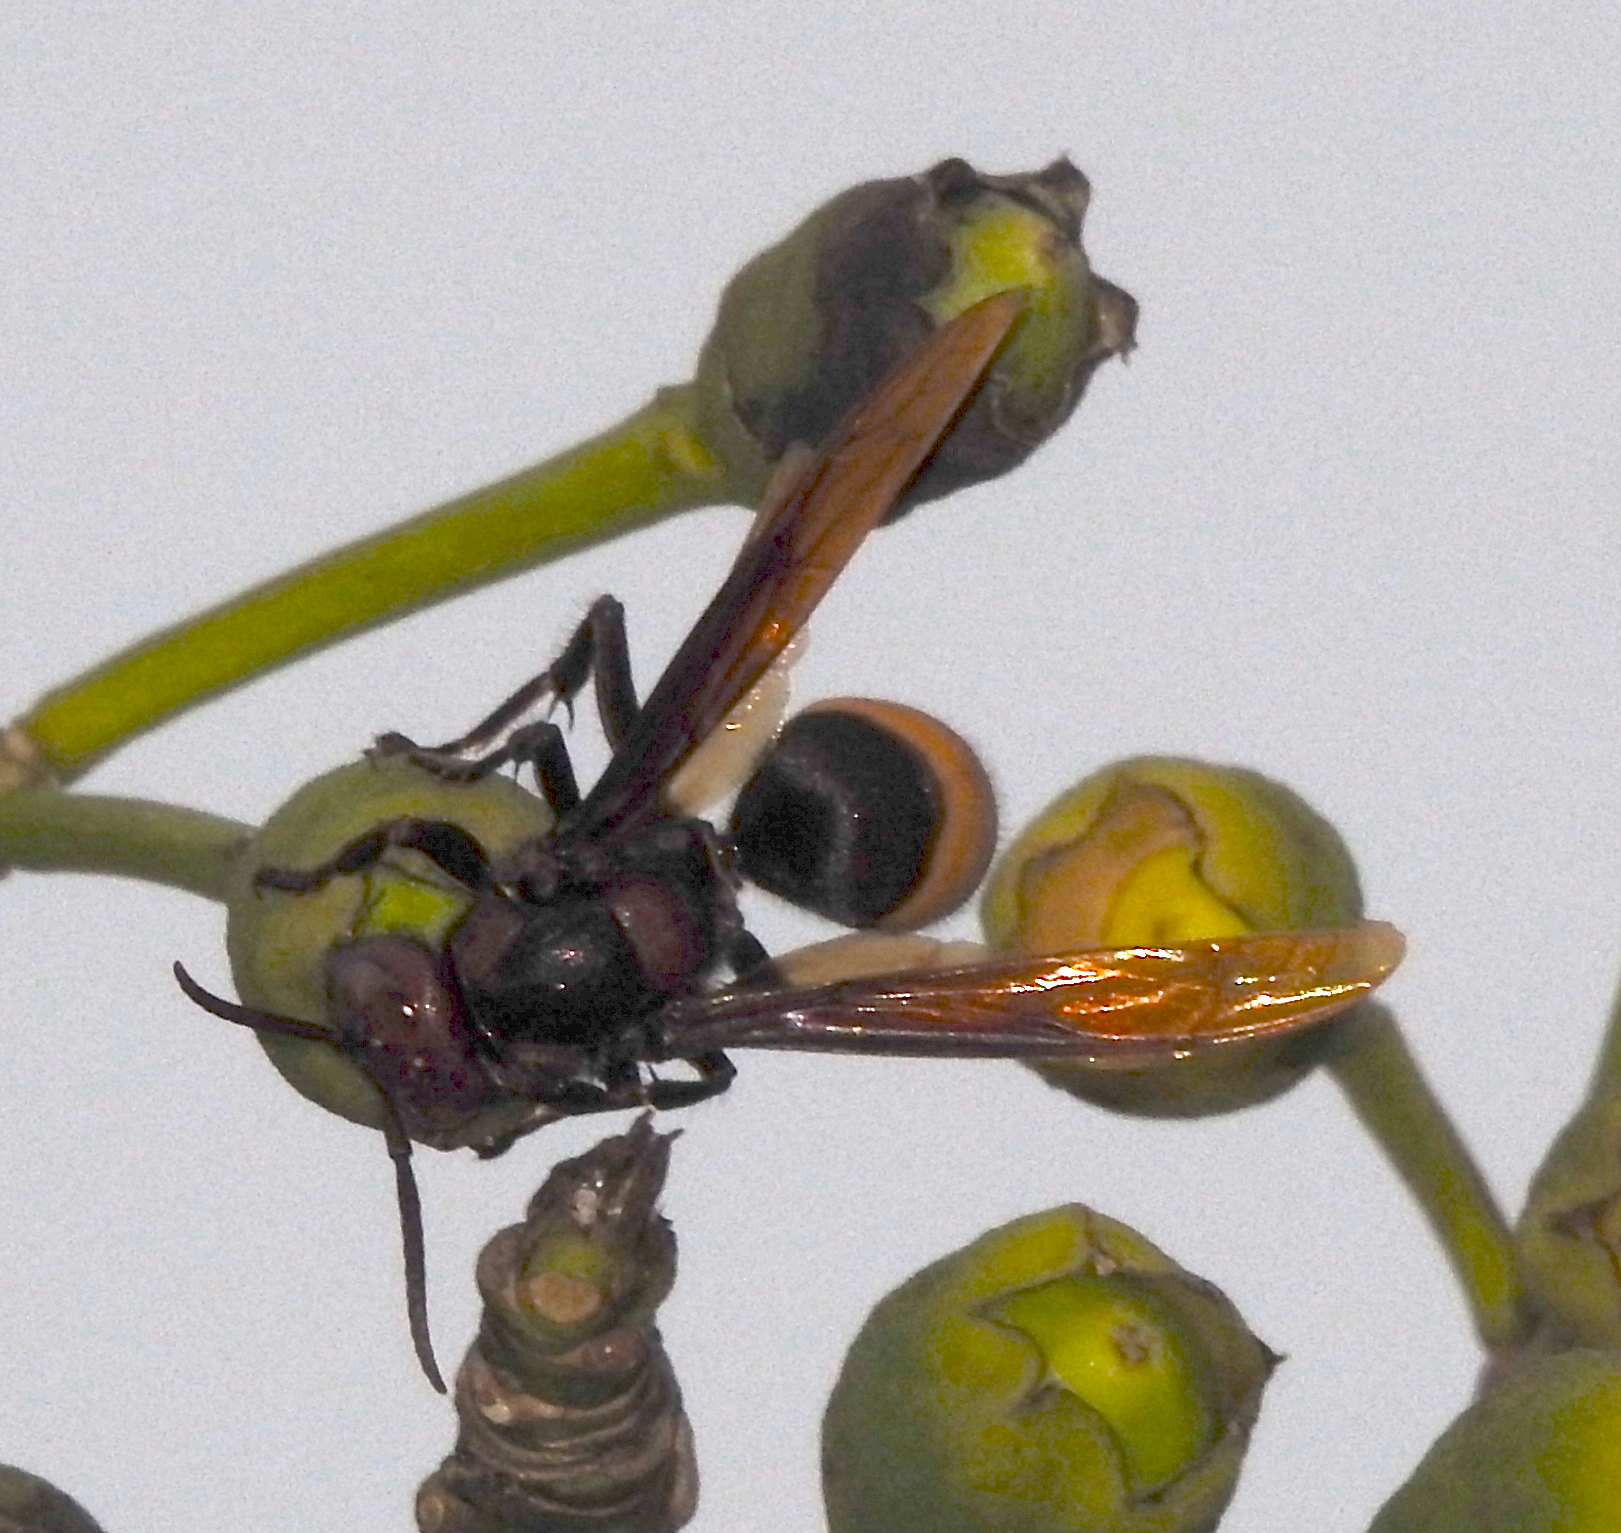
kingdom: Animalia
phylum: Arthropoda
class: Insecta
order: Hymenoptera
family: Vespidae
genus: Vespa
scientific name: Vespa tropica
